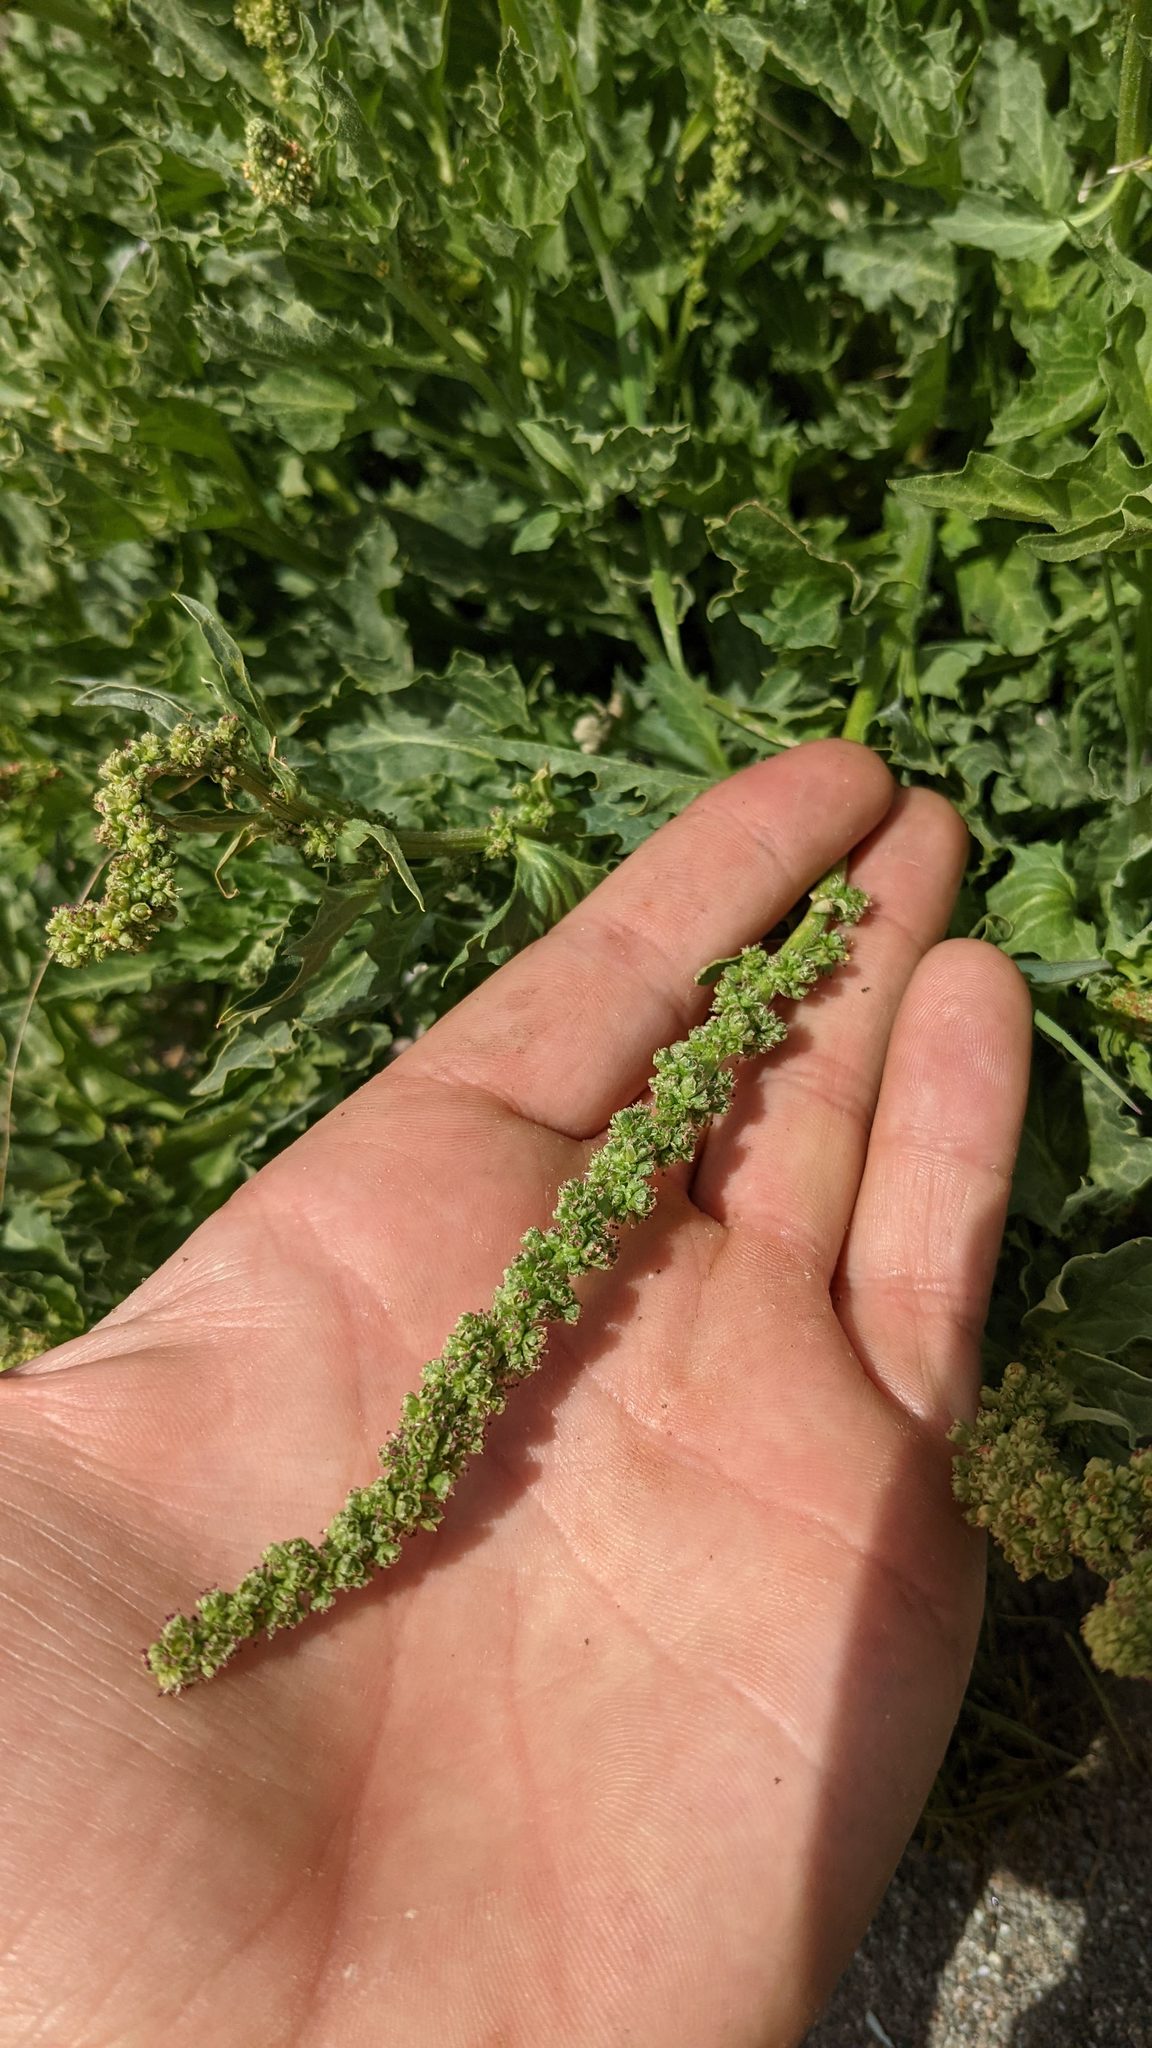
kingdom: Plantae
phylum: Tracheophyta
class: Magnoliopsida
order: Caryophyllales
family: Amaranthaceae
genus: Blitum
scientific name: Blitum californicum
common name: California goosefoot
